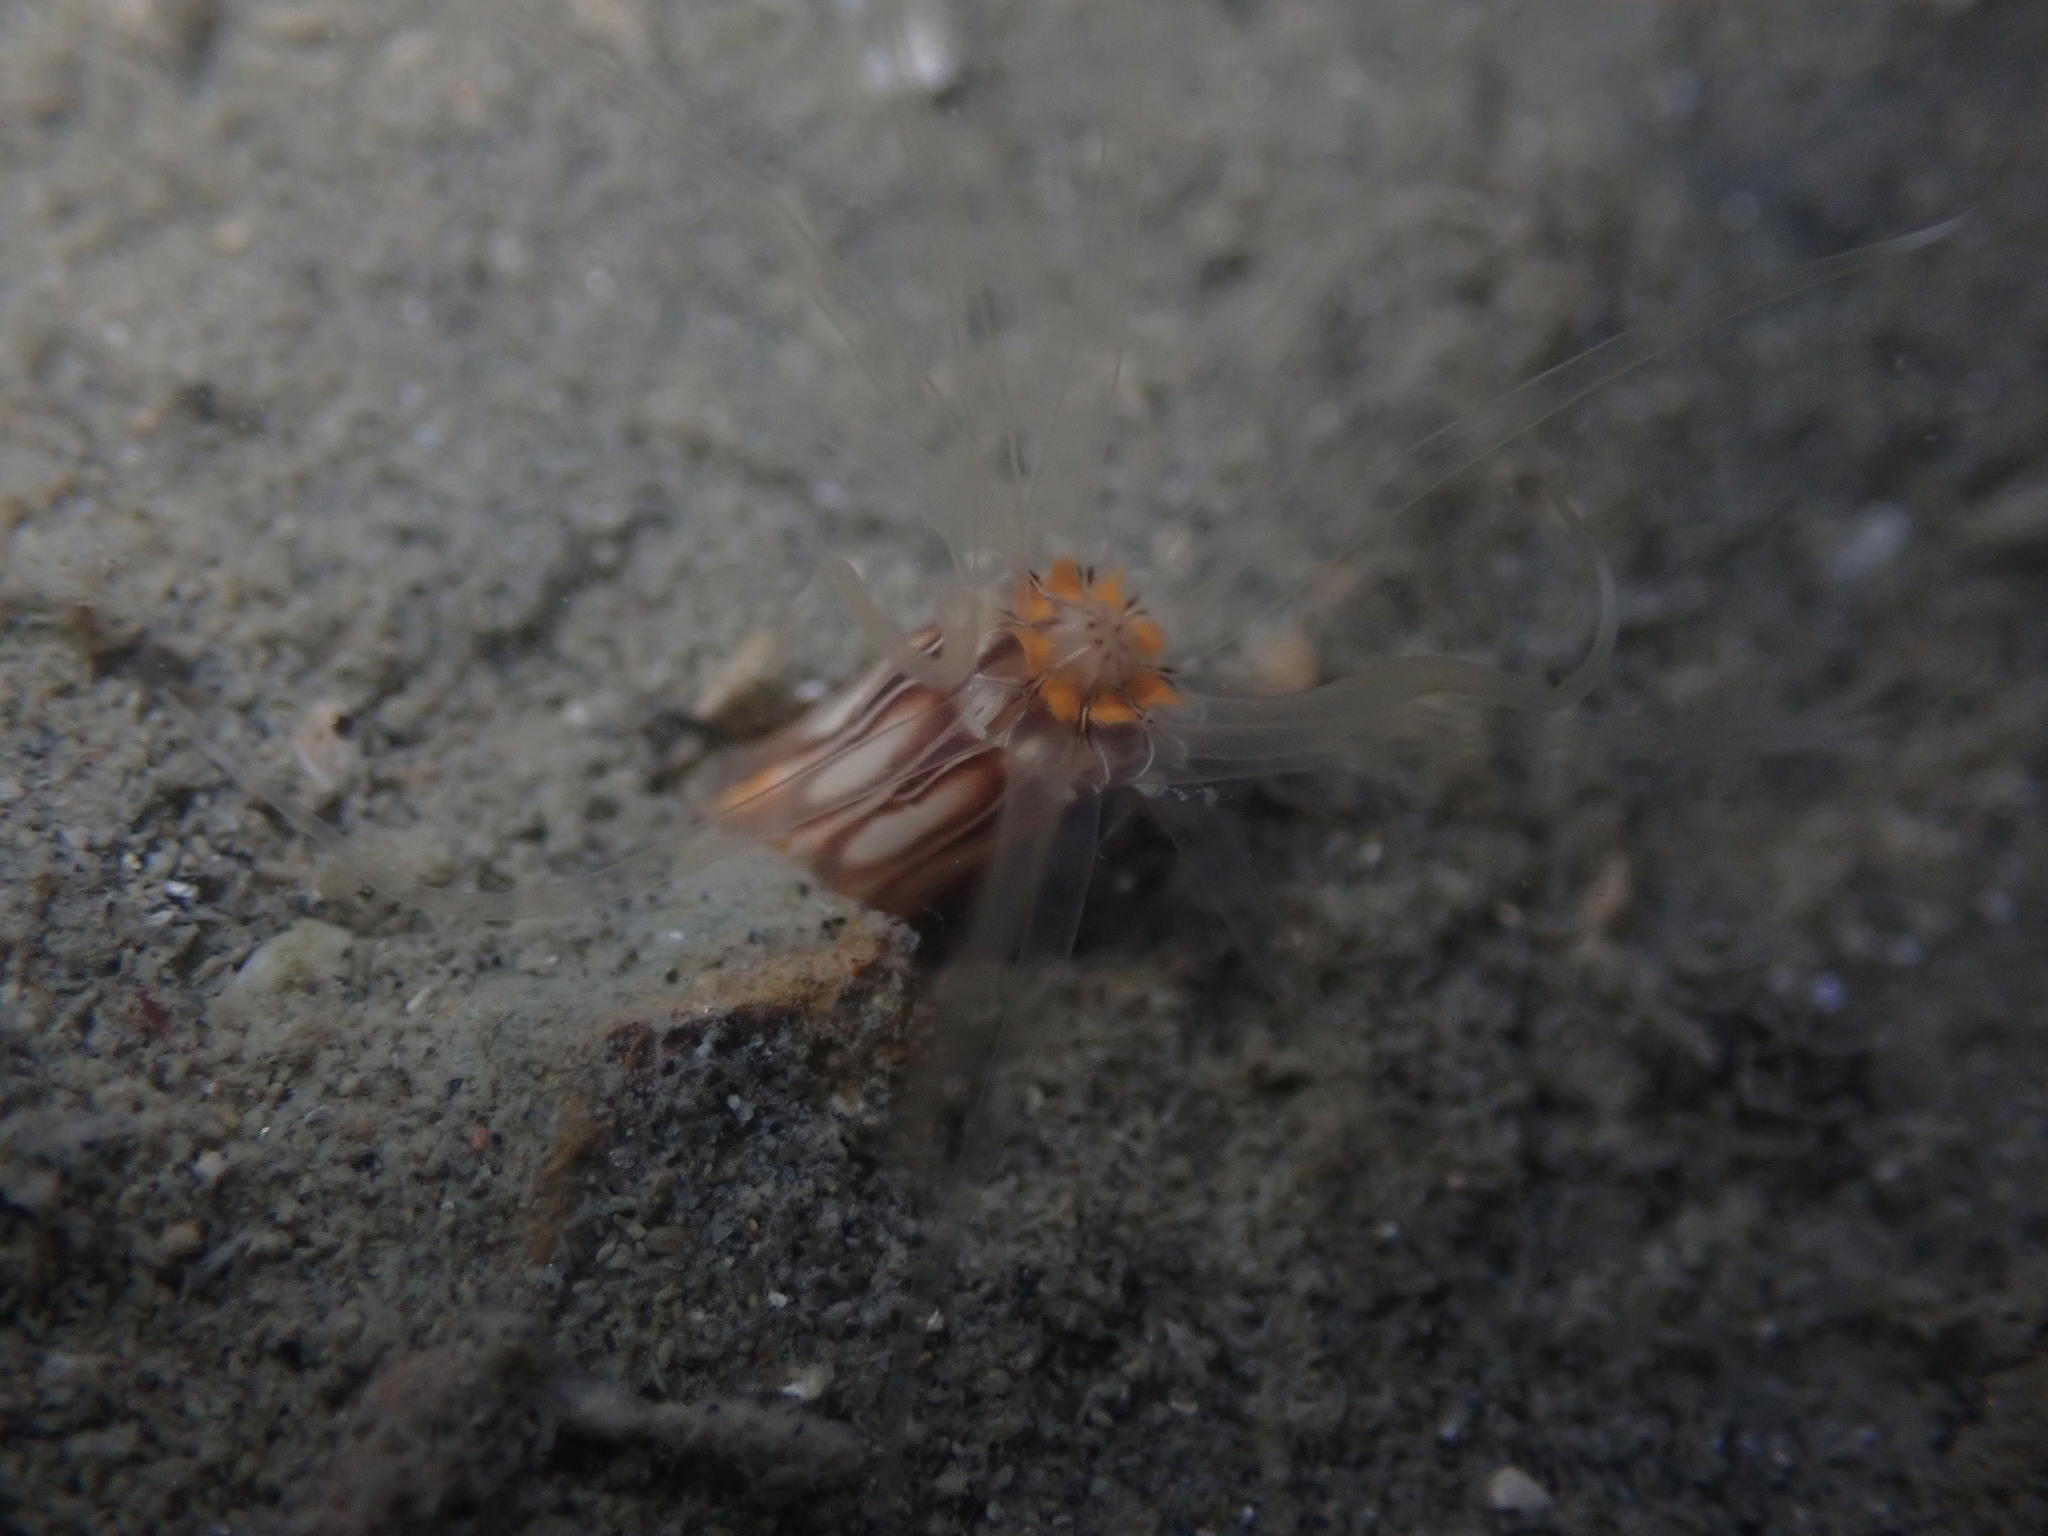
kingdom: Animalia
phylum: Cnidaria
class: Anthozoa
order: Actiniaria
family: Edwardsiidae
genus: Edwardsia
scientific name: Edwardsia neozelanica
